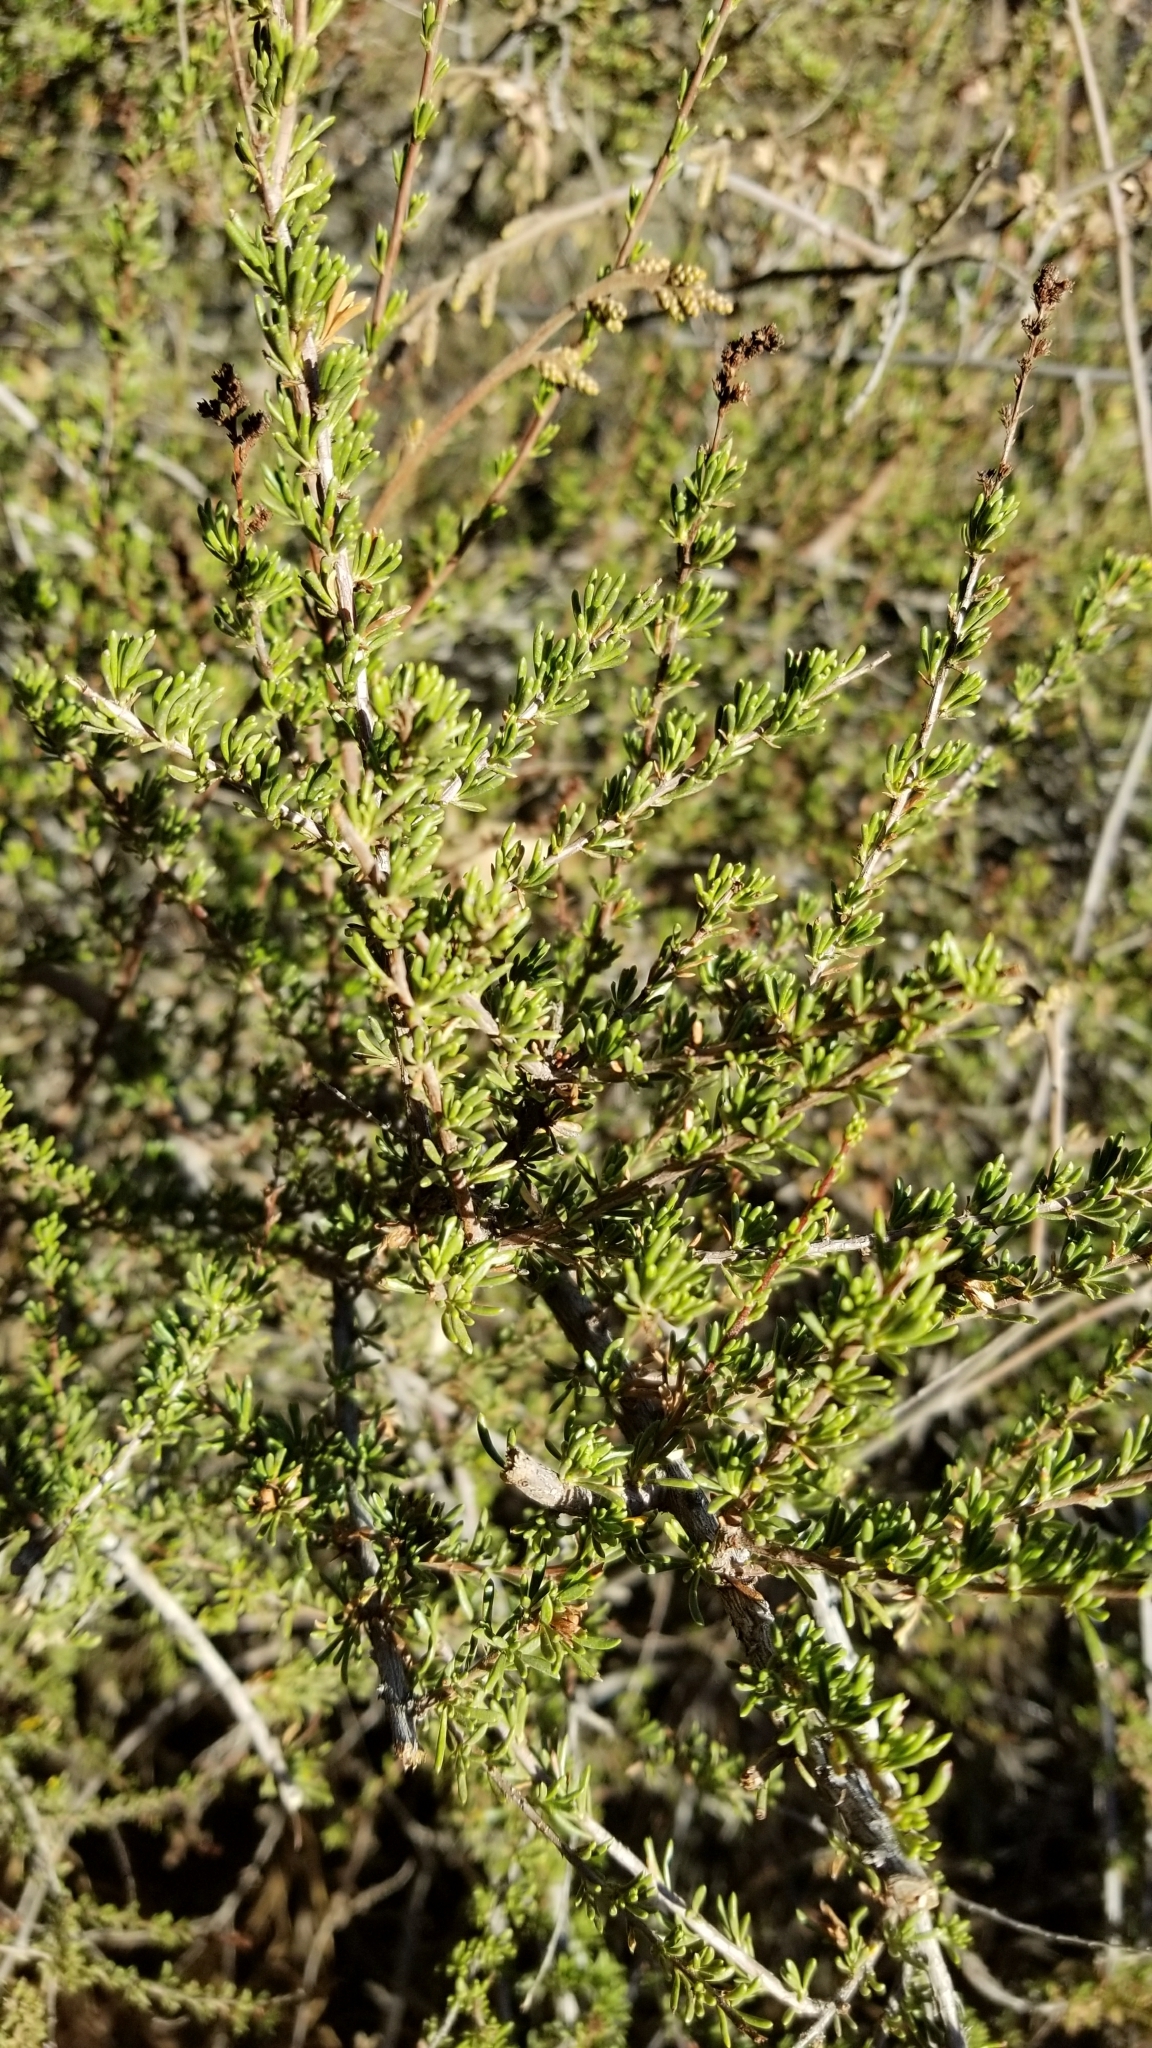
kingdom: Plantae
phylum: Tracheophyta
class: Magnoliopsida
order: Rosales
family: Rosaceae
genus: Adenostoma
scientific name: Adenostoma fasciculatum
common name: Chamise
